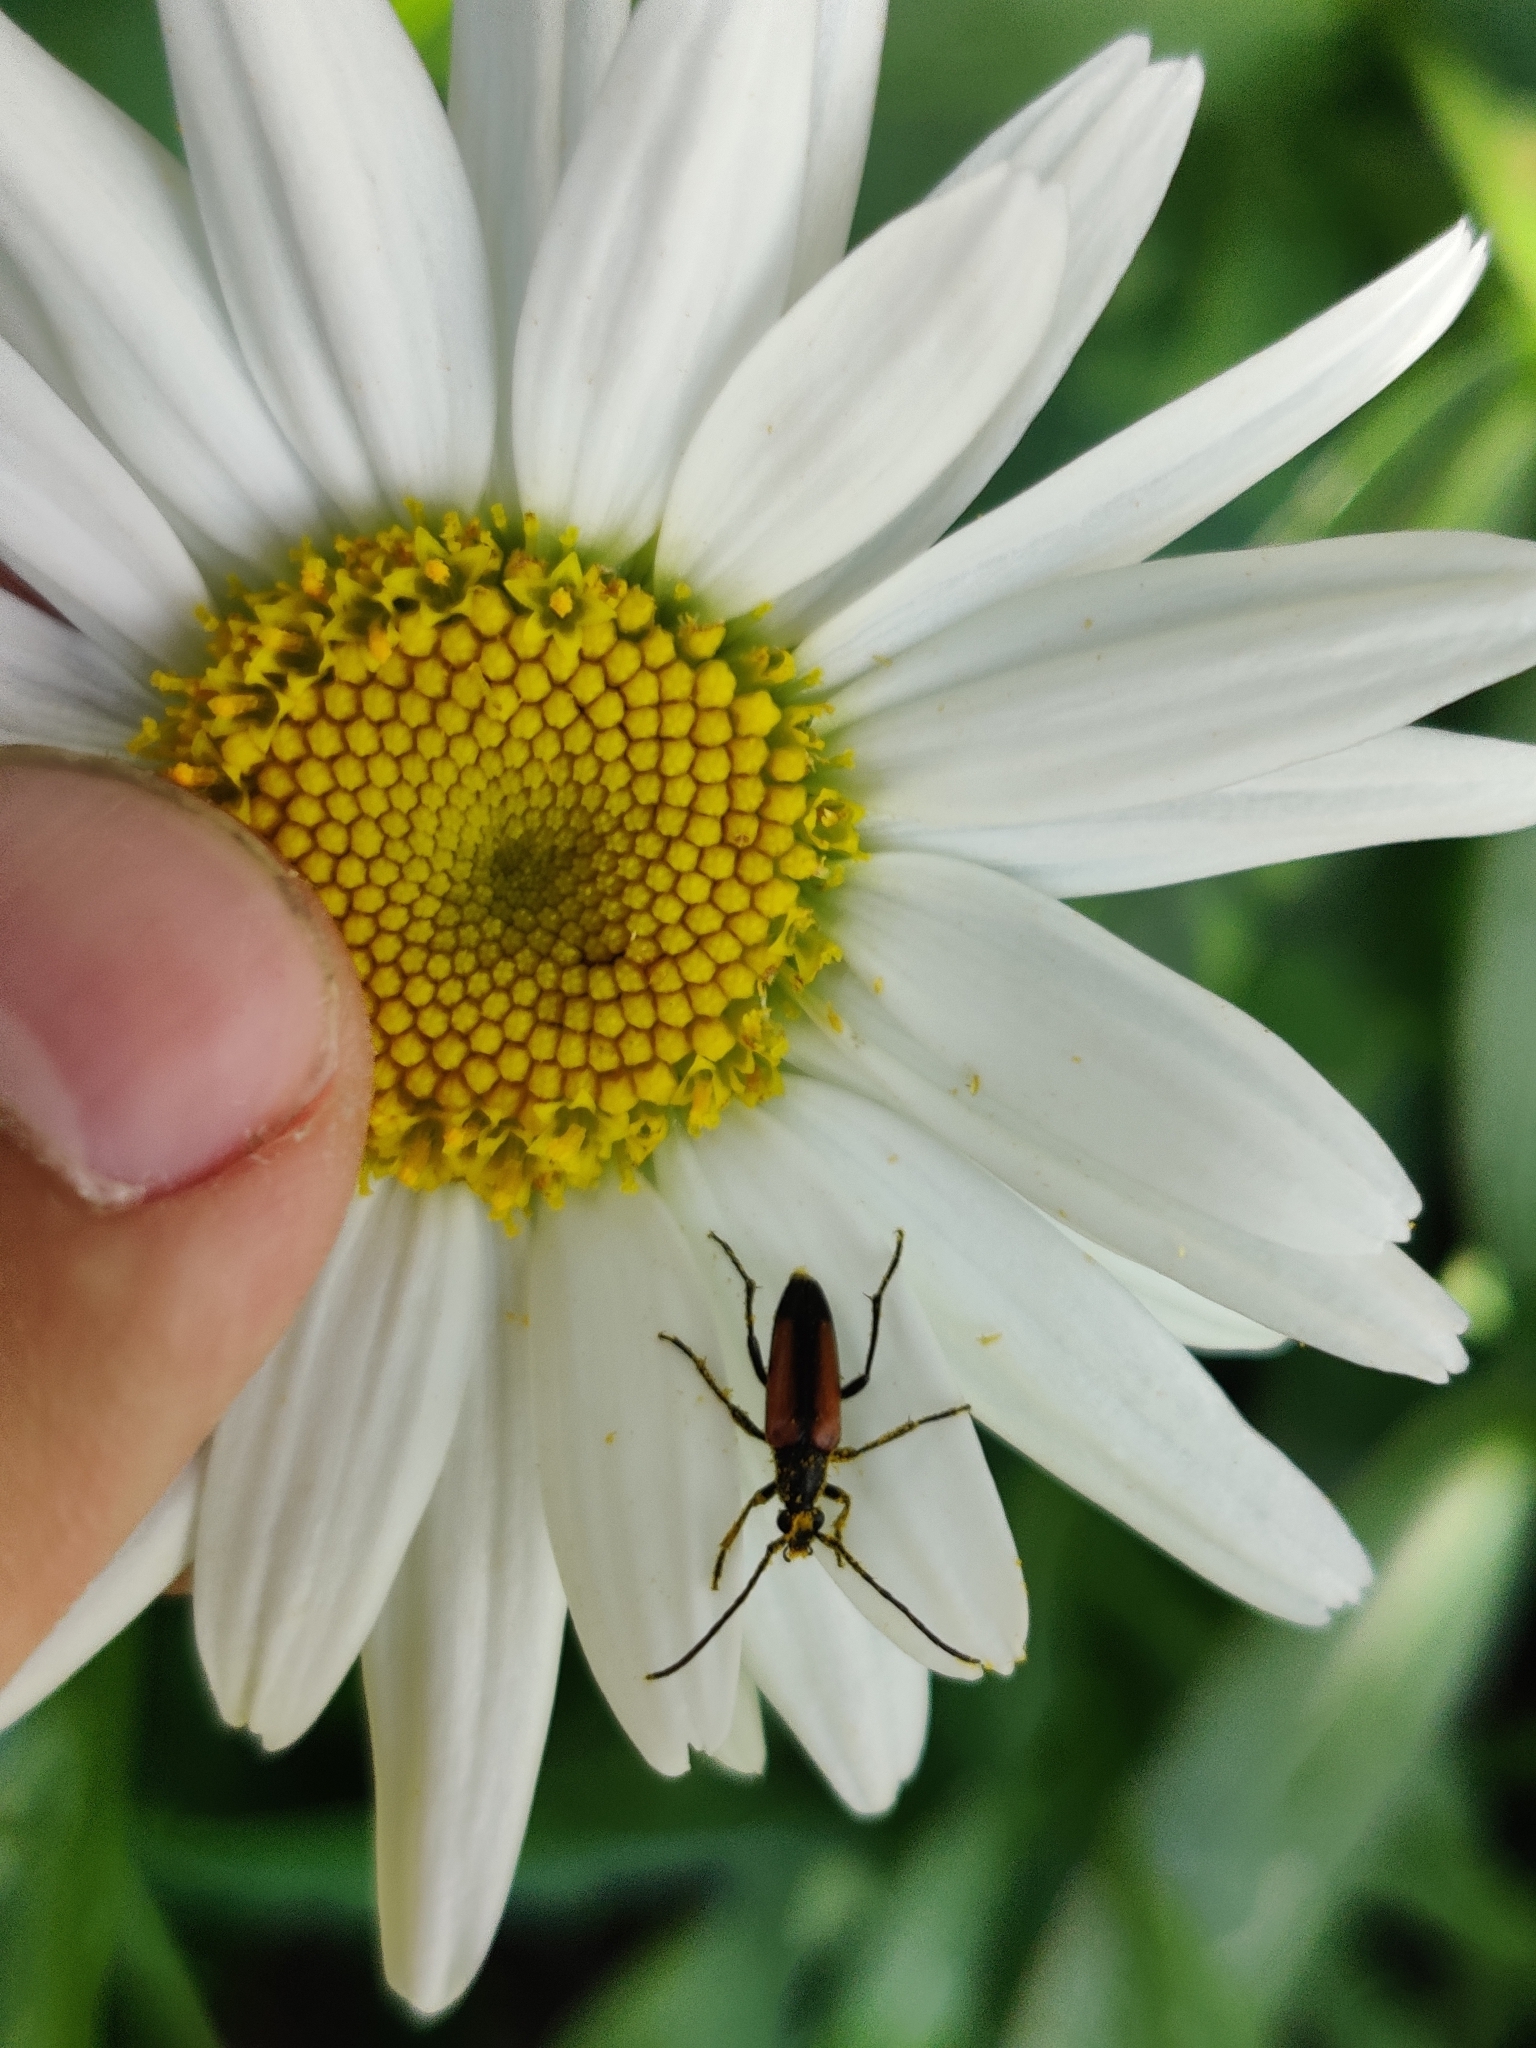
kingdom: Animalia
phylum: Arthropoda
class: Insecta
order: Coleoptera
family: Cerambycidae
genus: Stenurella
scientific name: Stenurella melanura
